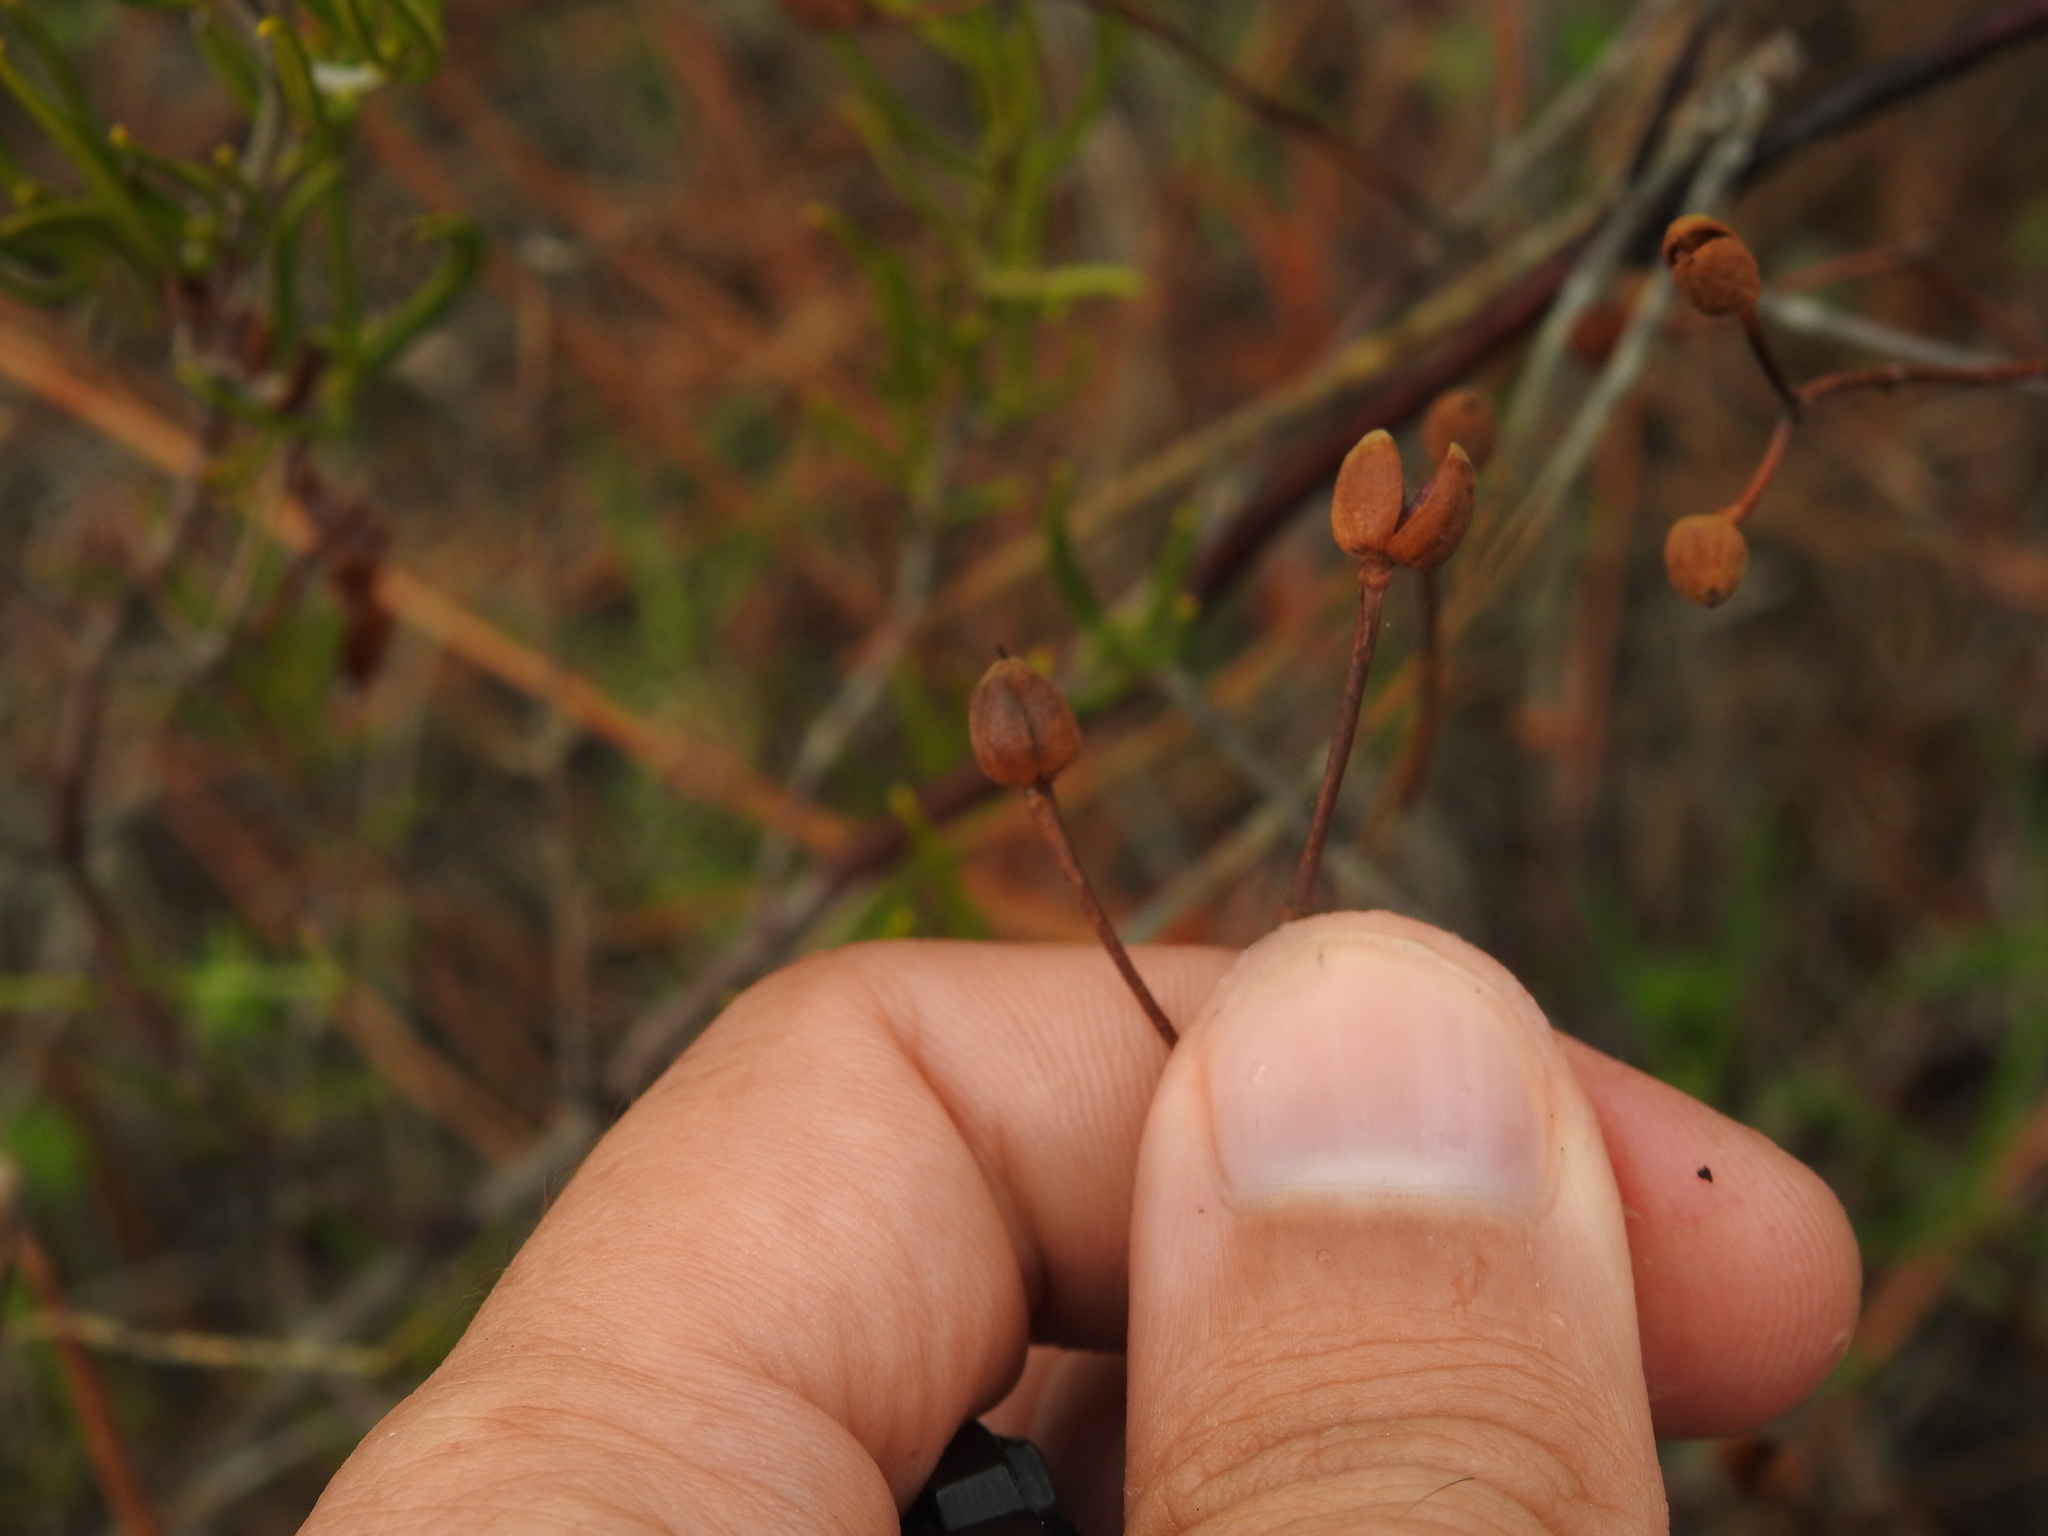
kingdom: Plantae
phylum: Tracheophyta
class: Magnoliopsida
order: Malvales
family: Cistaceae
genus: Cistus
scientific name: Cistus libanotis
